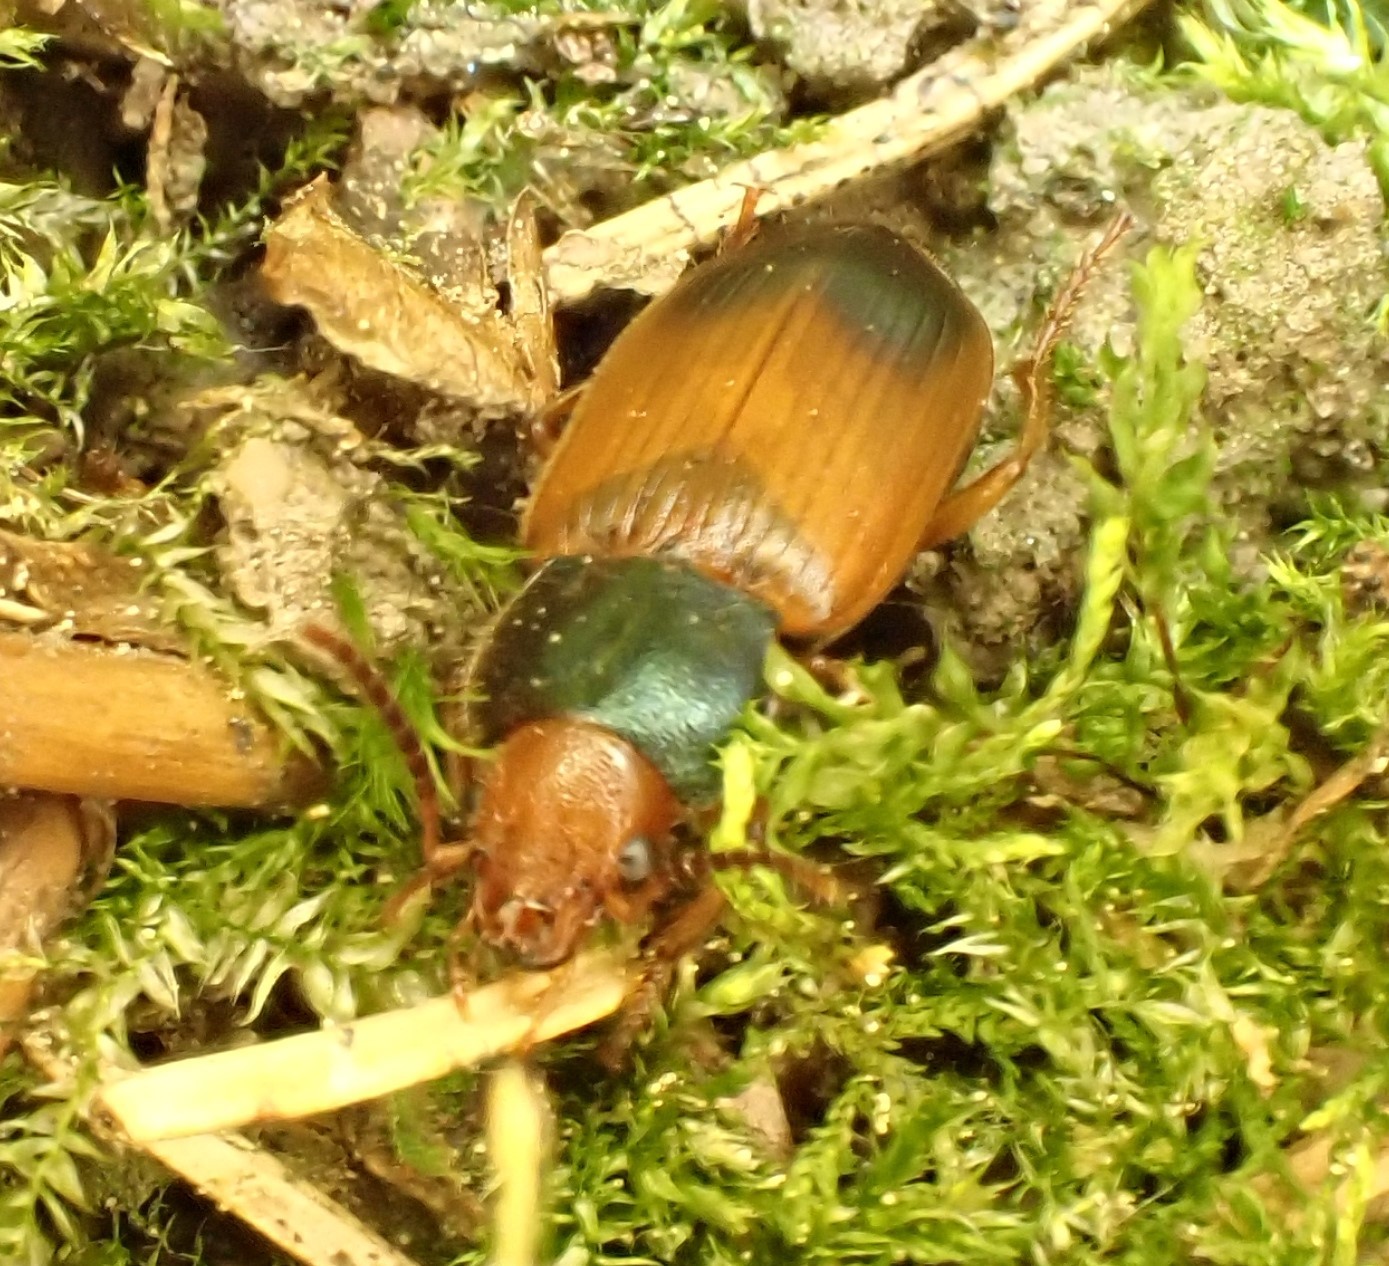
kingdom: Animalia
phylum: Arthropoda
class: Insecta
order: Coleoptera
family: Carabidae
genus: Diachromus
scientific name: Diachromus germanus
